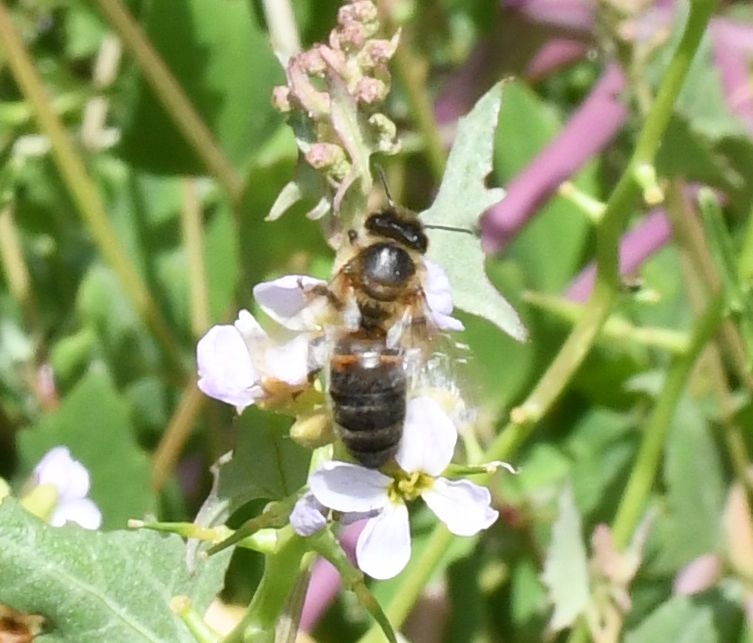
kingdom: Animalia
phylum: Arthropoda
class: Insecta
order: Hymenoptera
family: Apidae
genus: Apis
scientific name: Apis mellifera
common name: Honey bee
